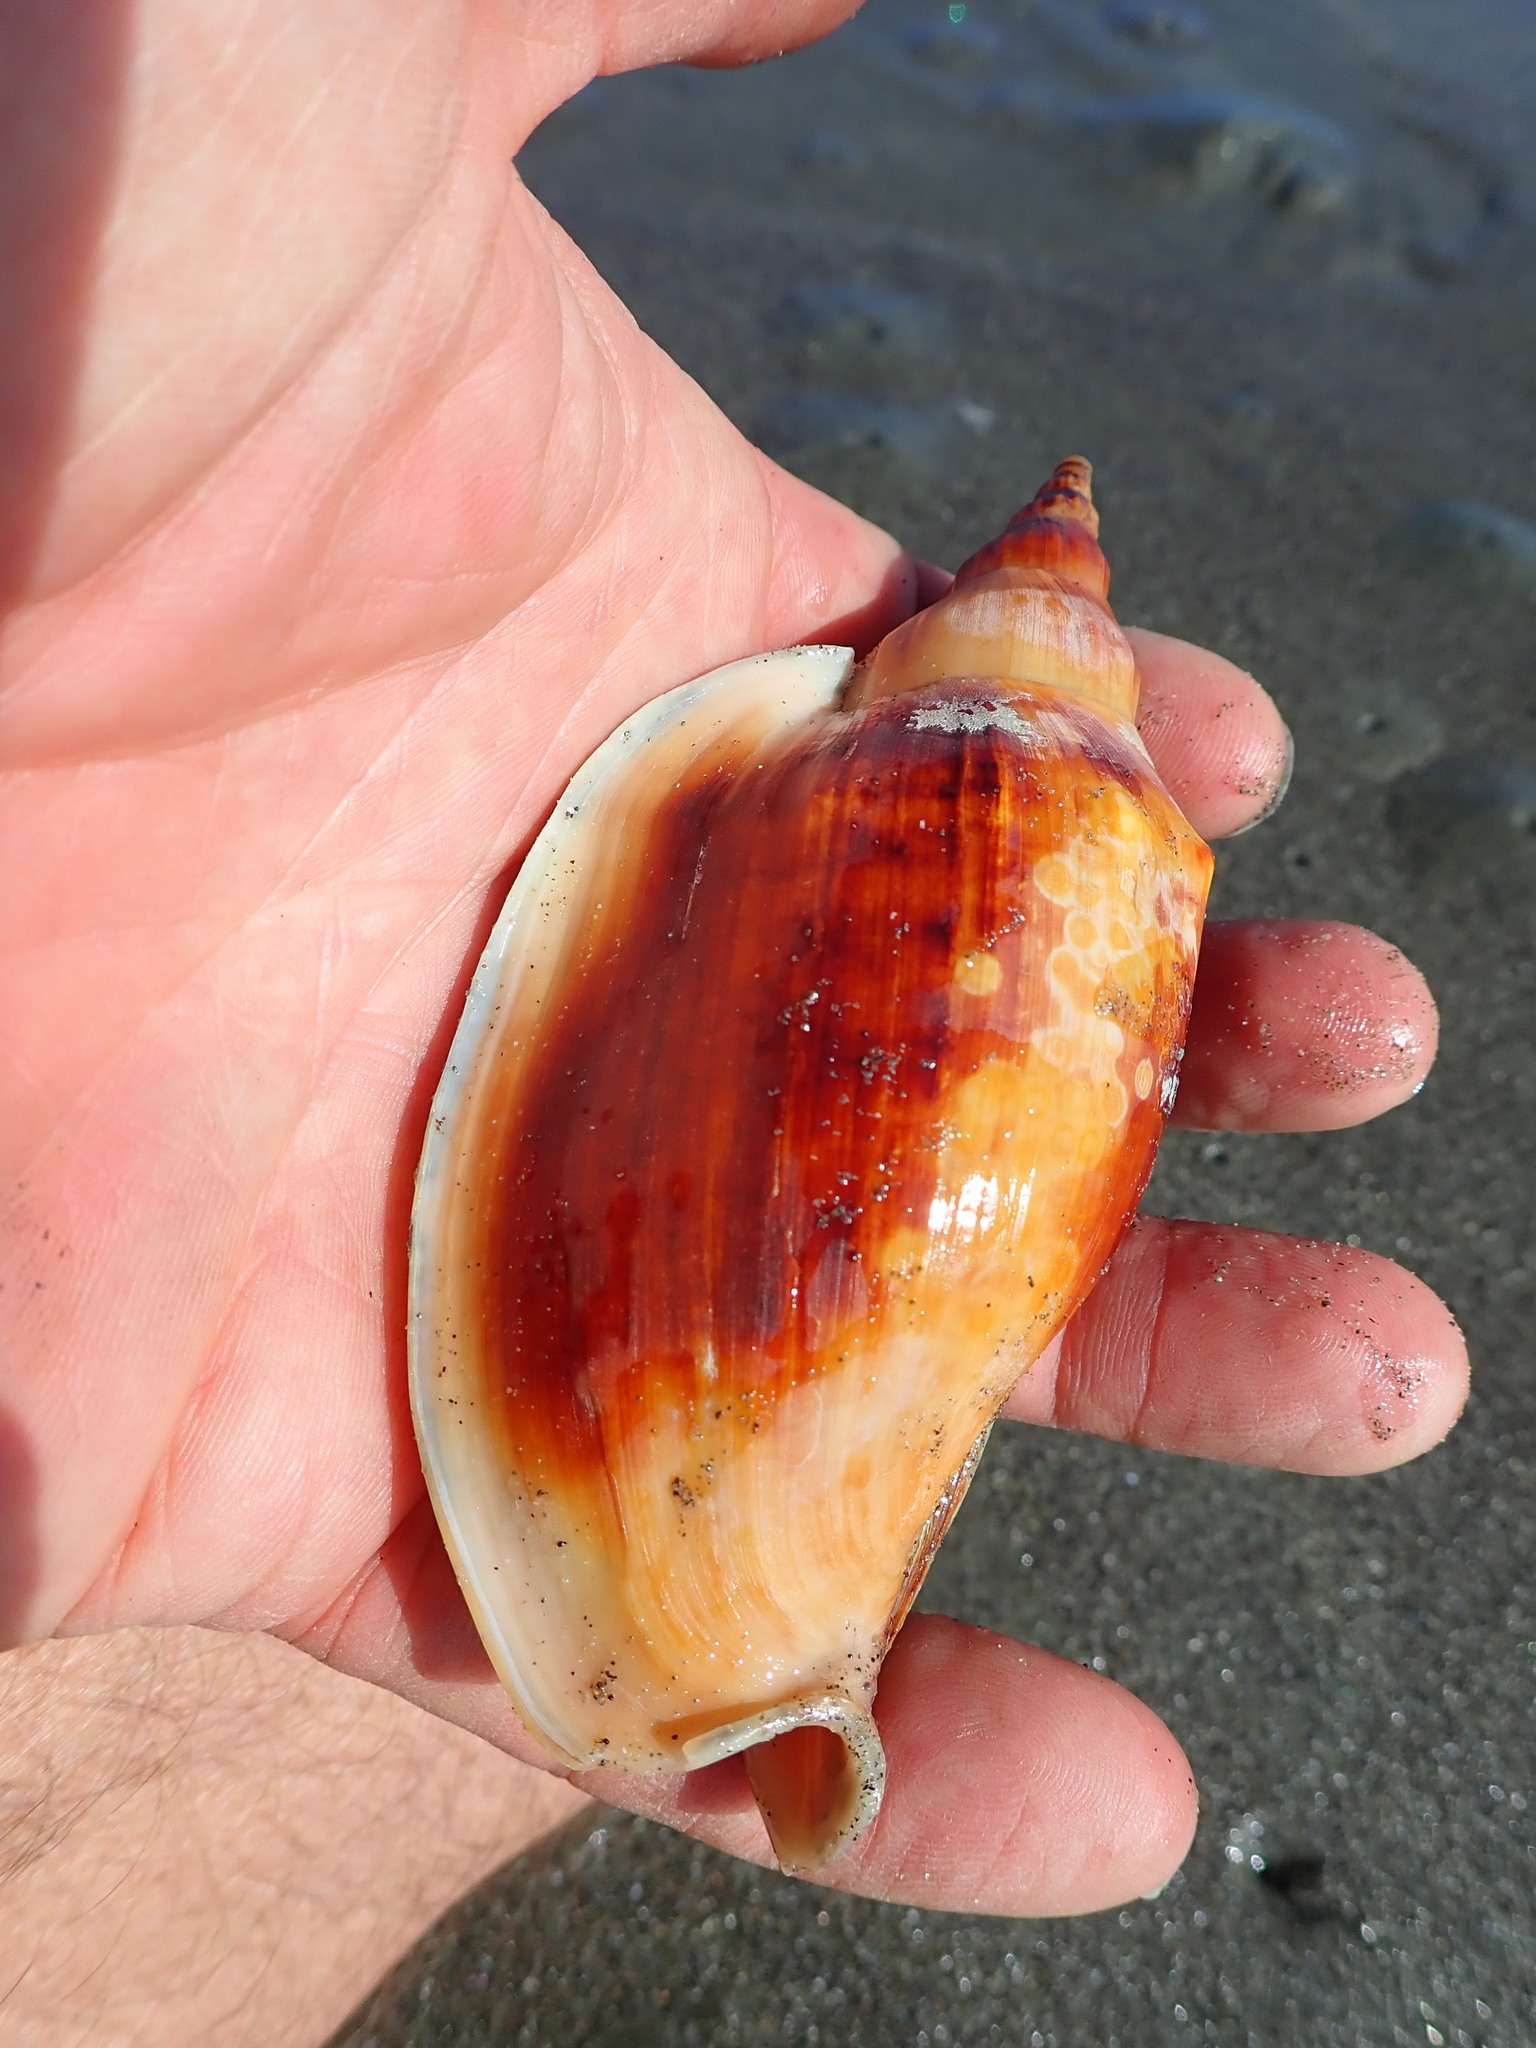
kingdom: Animalia
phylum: Mollusca
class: Gastropoda
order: Neogastropoda
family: Volutidae
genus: Alcithoe
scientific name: Alcithoe arabica
